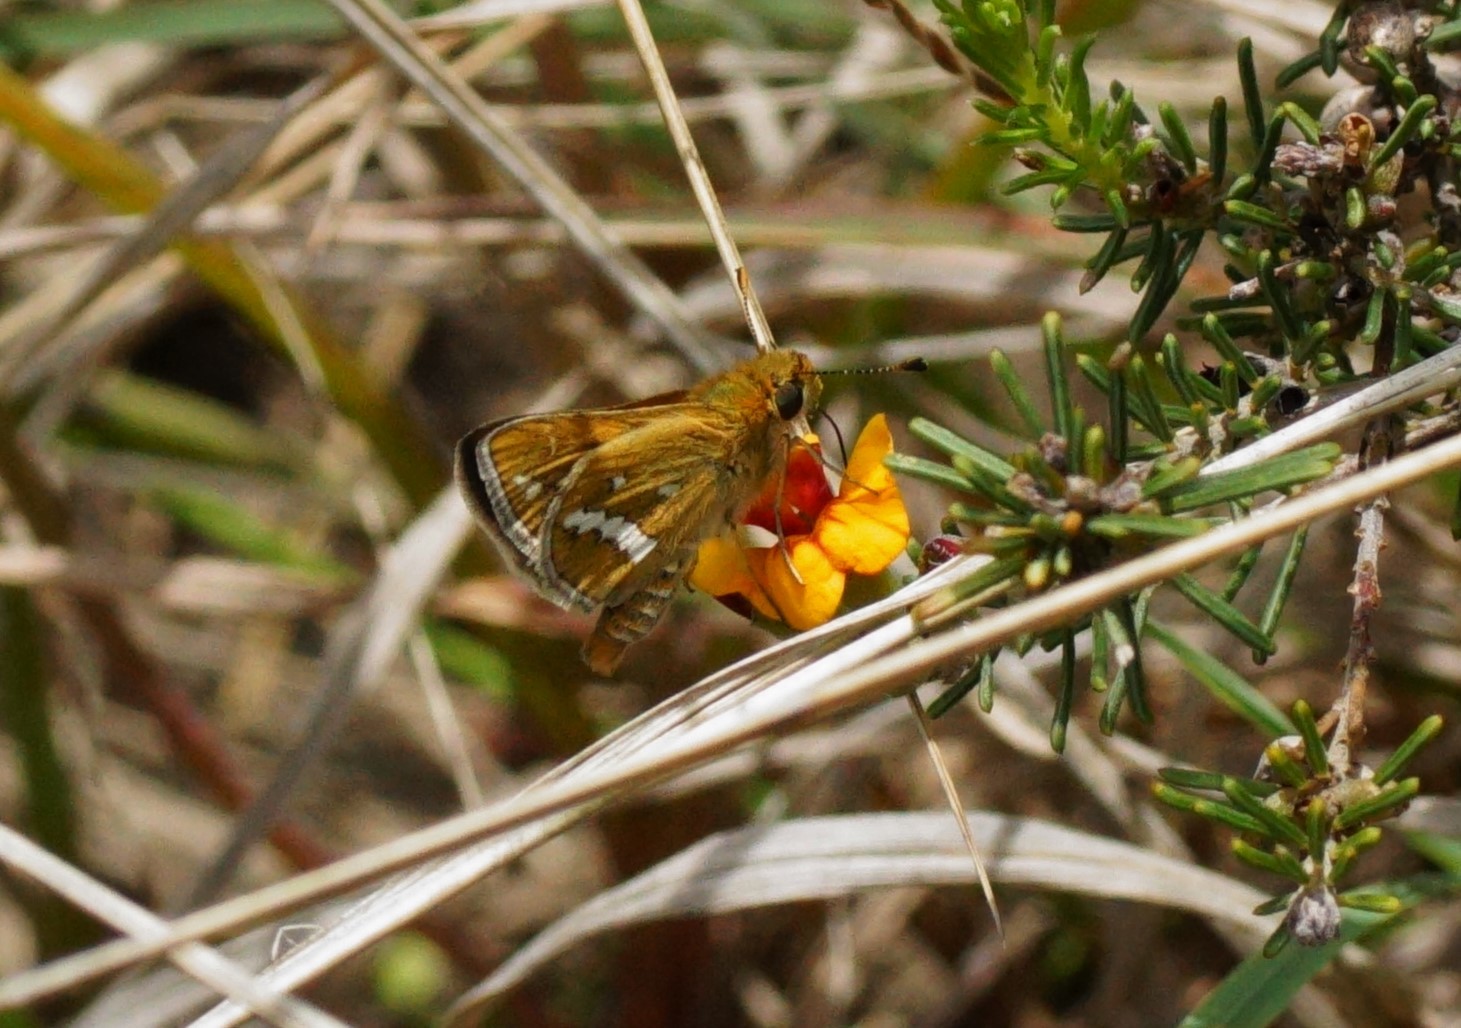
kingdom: Animalia
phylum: Arthropoda
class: Insecta
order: Lepidoptera
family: Hesperiidae
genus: Taractrocera
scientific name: Taractrocera papyria
